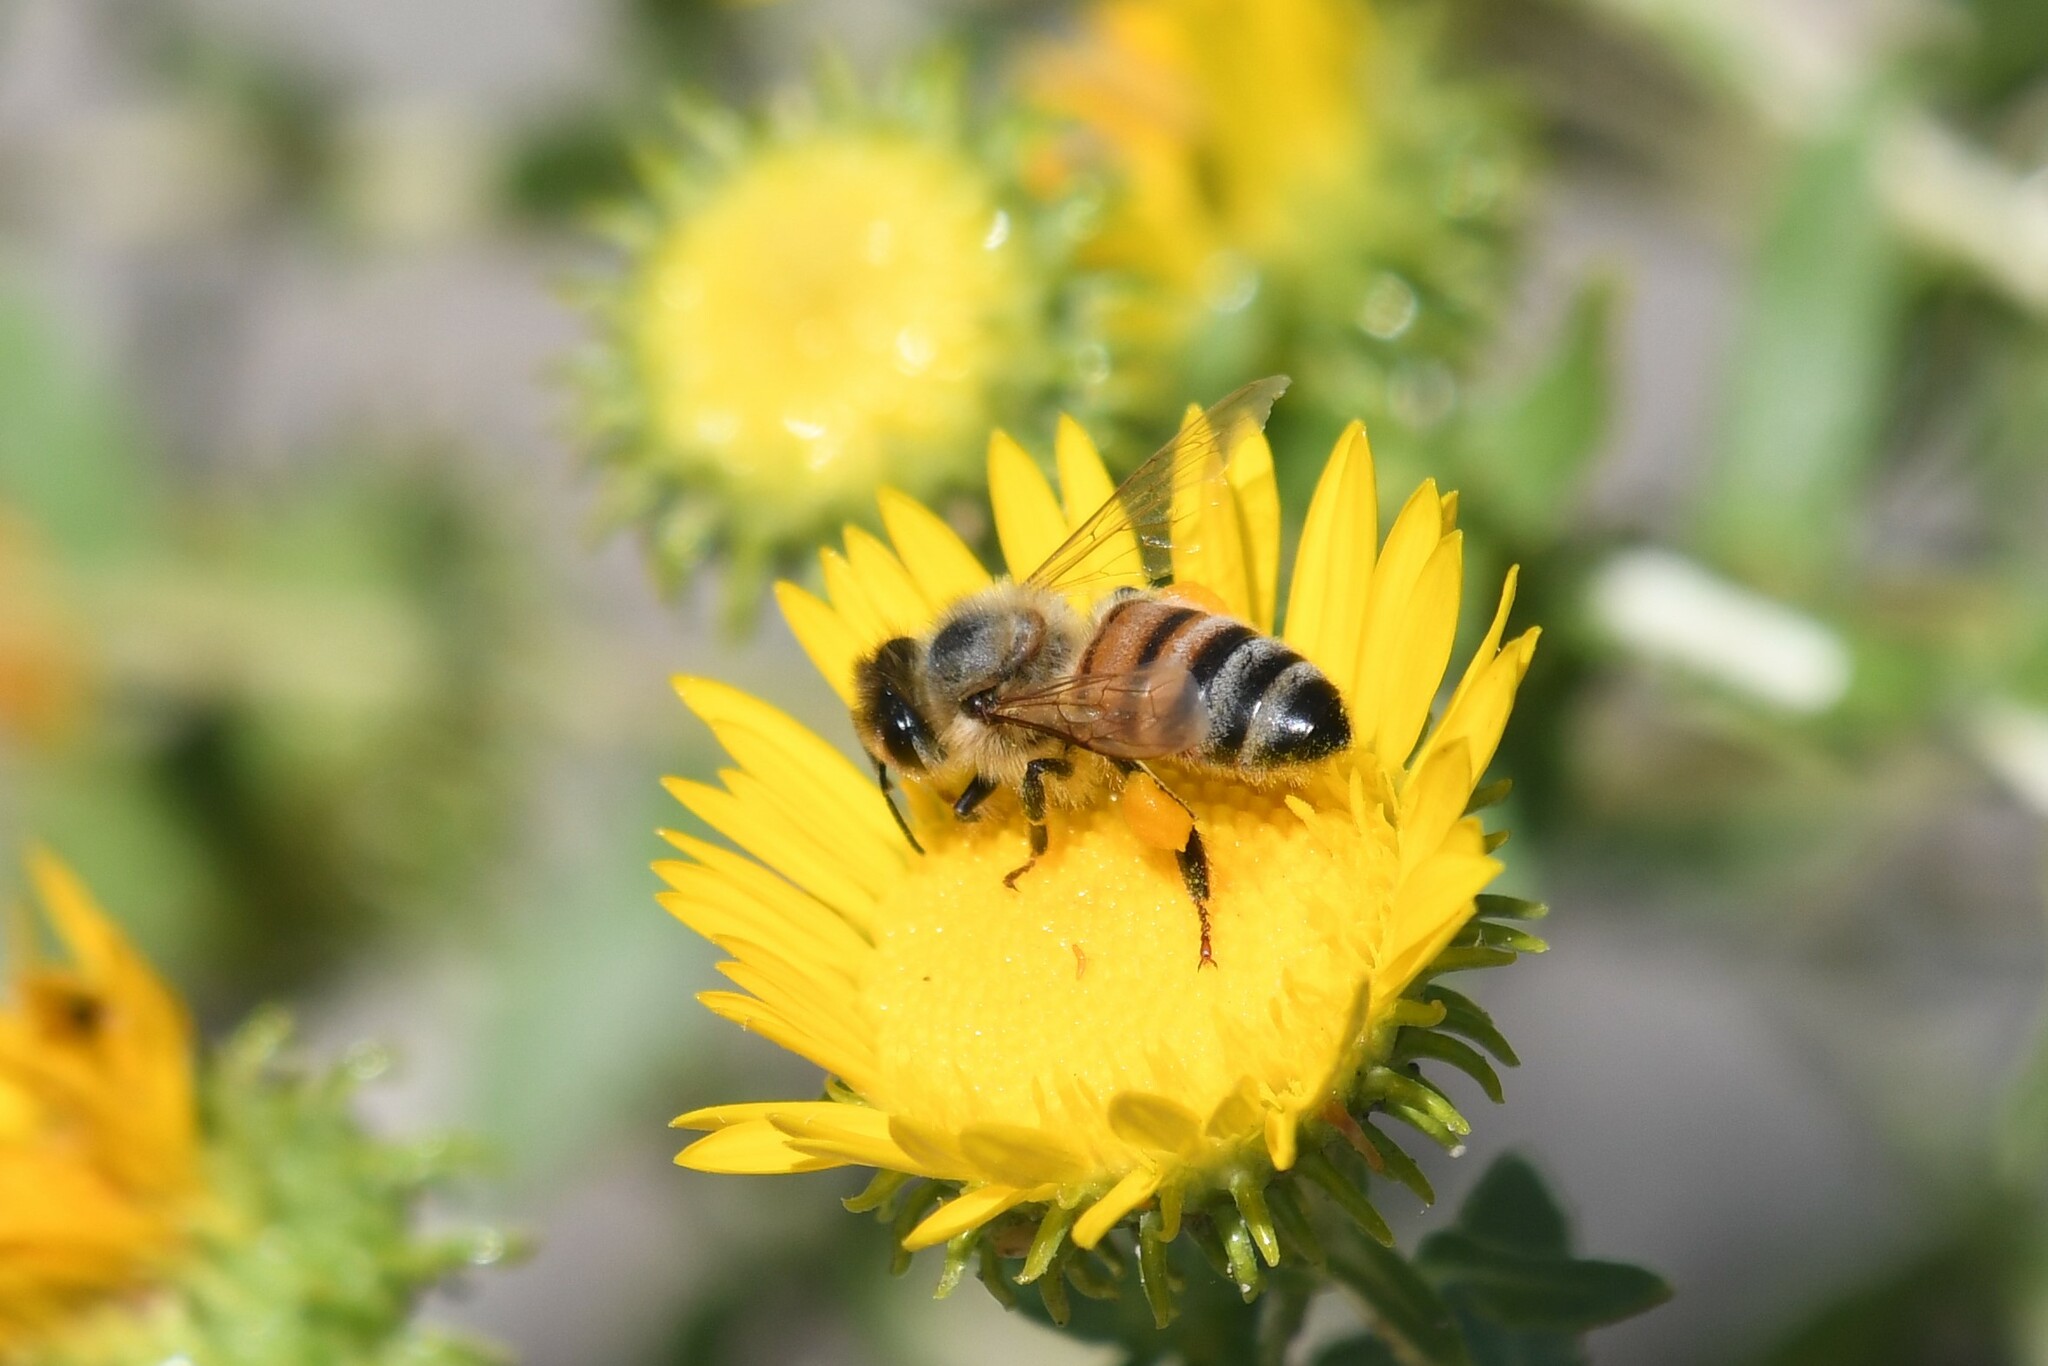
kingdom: Animalia
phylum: Arthropoda
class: Insecta
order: Hymenoptera
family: Apidae
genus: Apis
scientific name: Apis mellifera
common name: Honey bee
